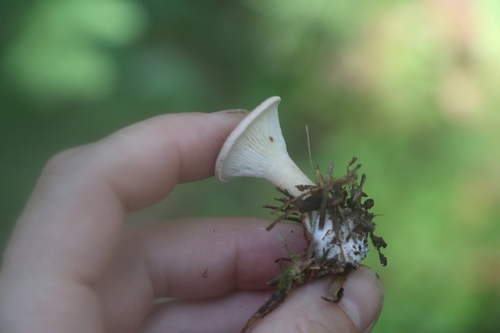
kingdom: Fungi
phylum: Basidiomycota
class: Agaricomycetes
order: Agaricales
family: Tricholomataceae
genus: Infundibulicybe
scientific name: Infundibulicybe gibba
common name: Common funnel
